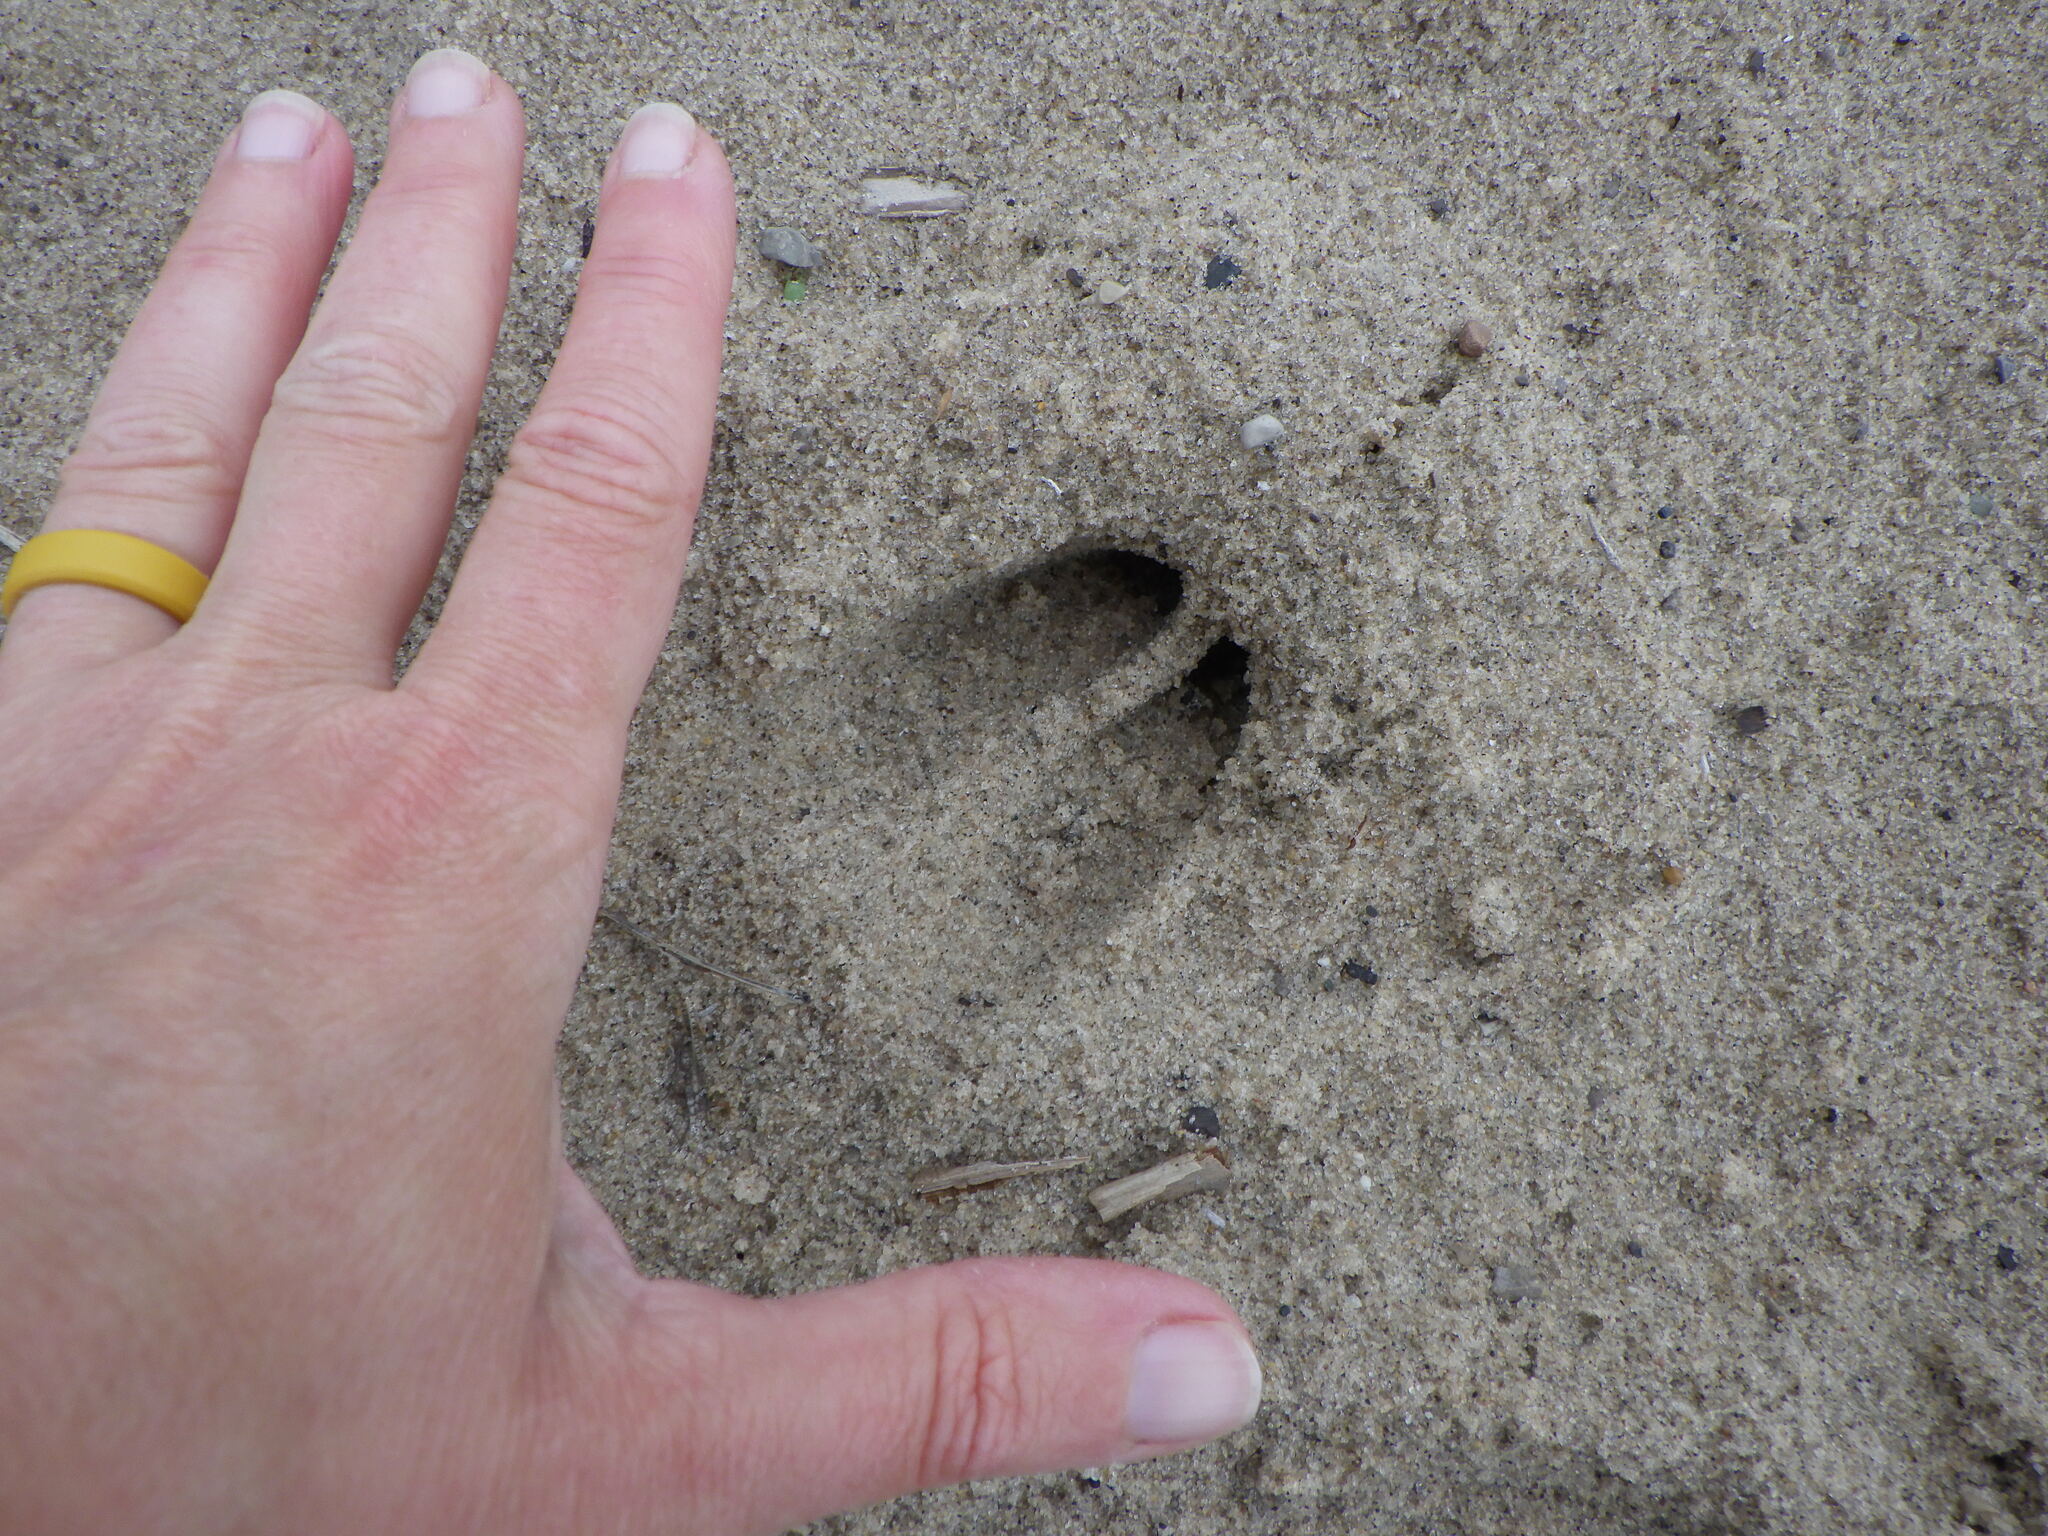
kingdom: Animalia
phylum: Chordata
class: Mammalia
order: Artiodactyla
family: Cervidae
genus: Odocoileus
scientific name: Odocoileus virginianus
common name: White-tailed deer
